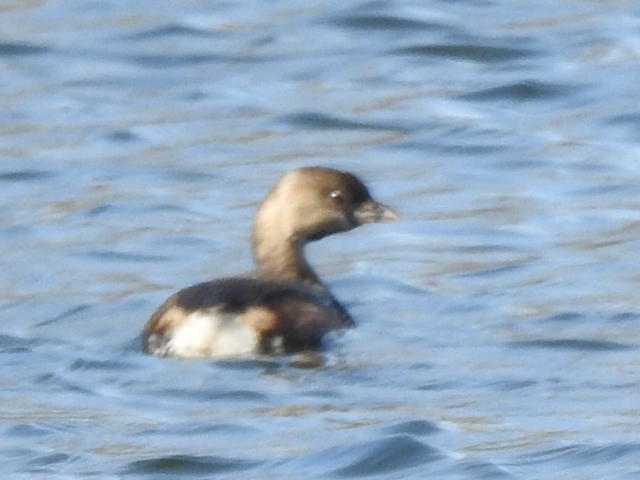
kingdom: Animalia
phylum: Chordata
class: Aves
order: Podicipediformes
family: Podicipedidae
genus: Podilymbus
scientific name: Podilymbus podiceps
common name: Pied-billed grebe
